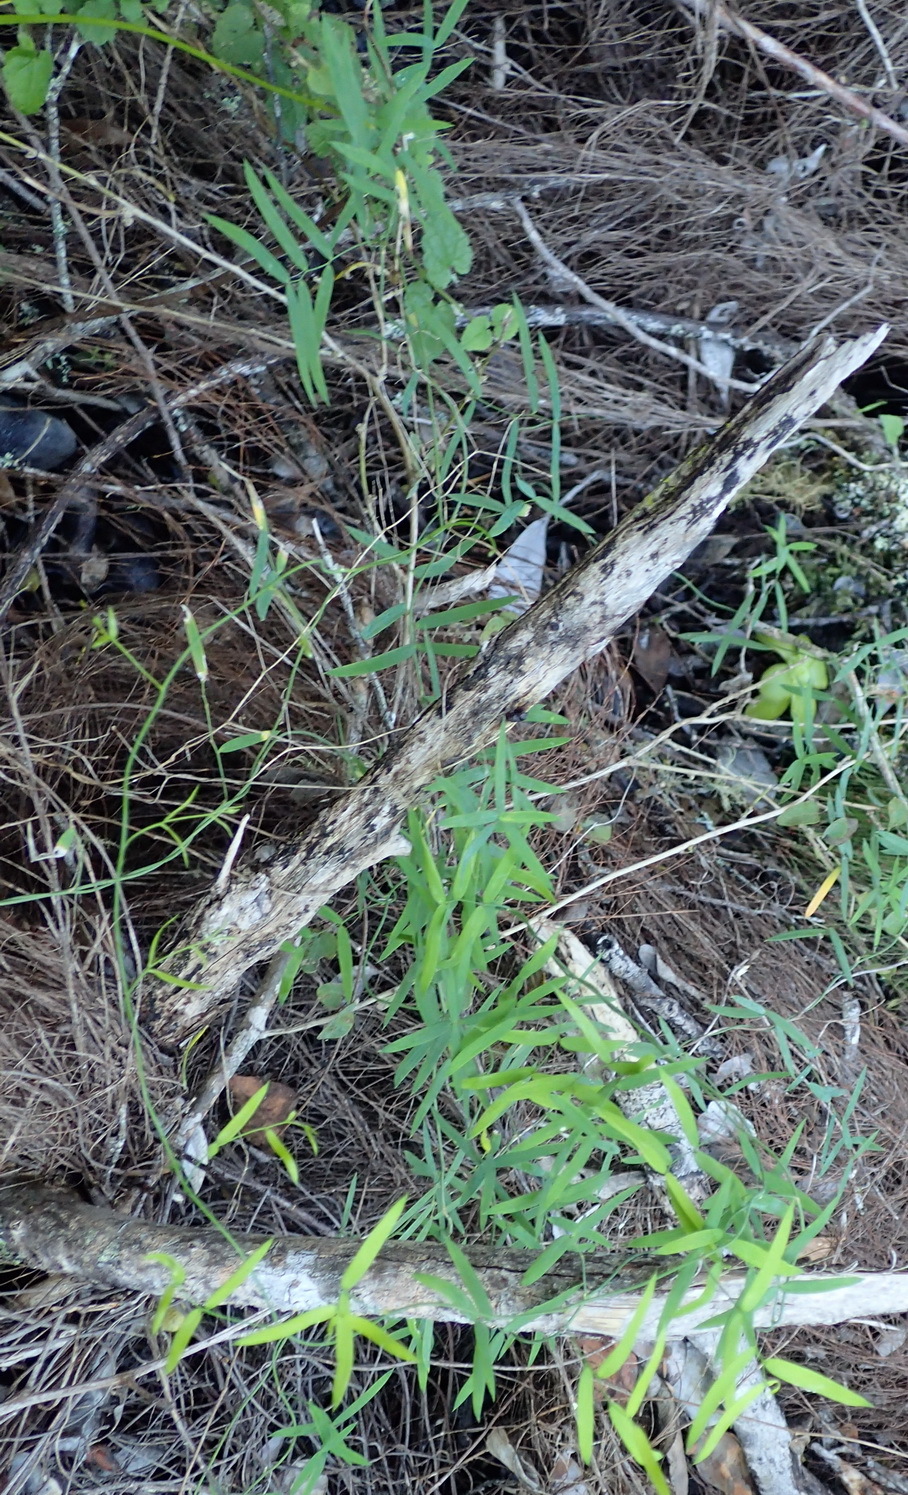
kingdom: Plantae
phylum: Tracheophyta
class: Liliopsida
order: Asparagales
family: Asparagaceae
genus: Asparagus
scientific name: Asparagus volubilis
